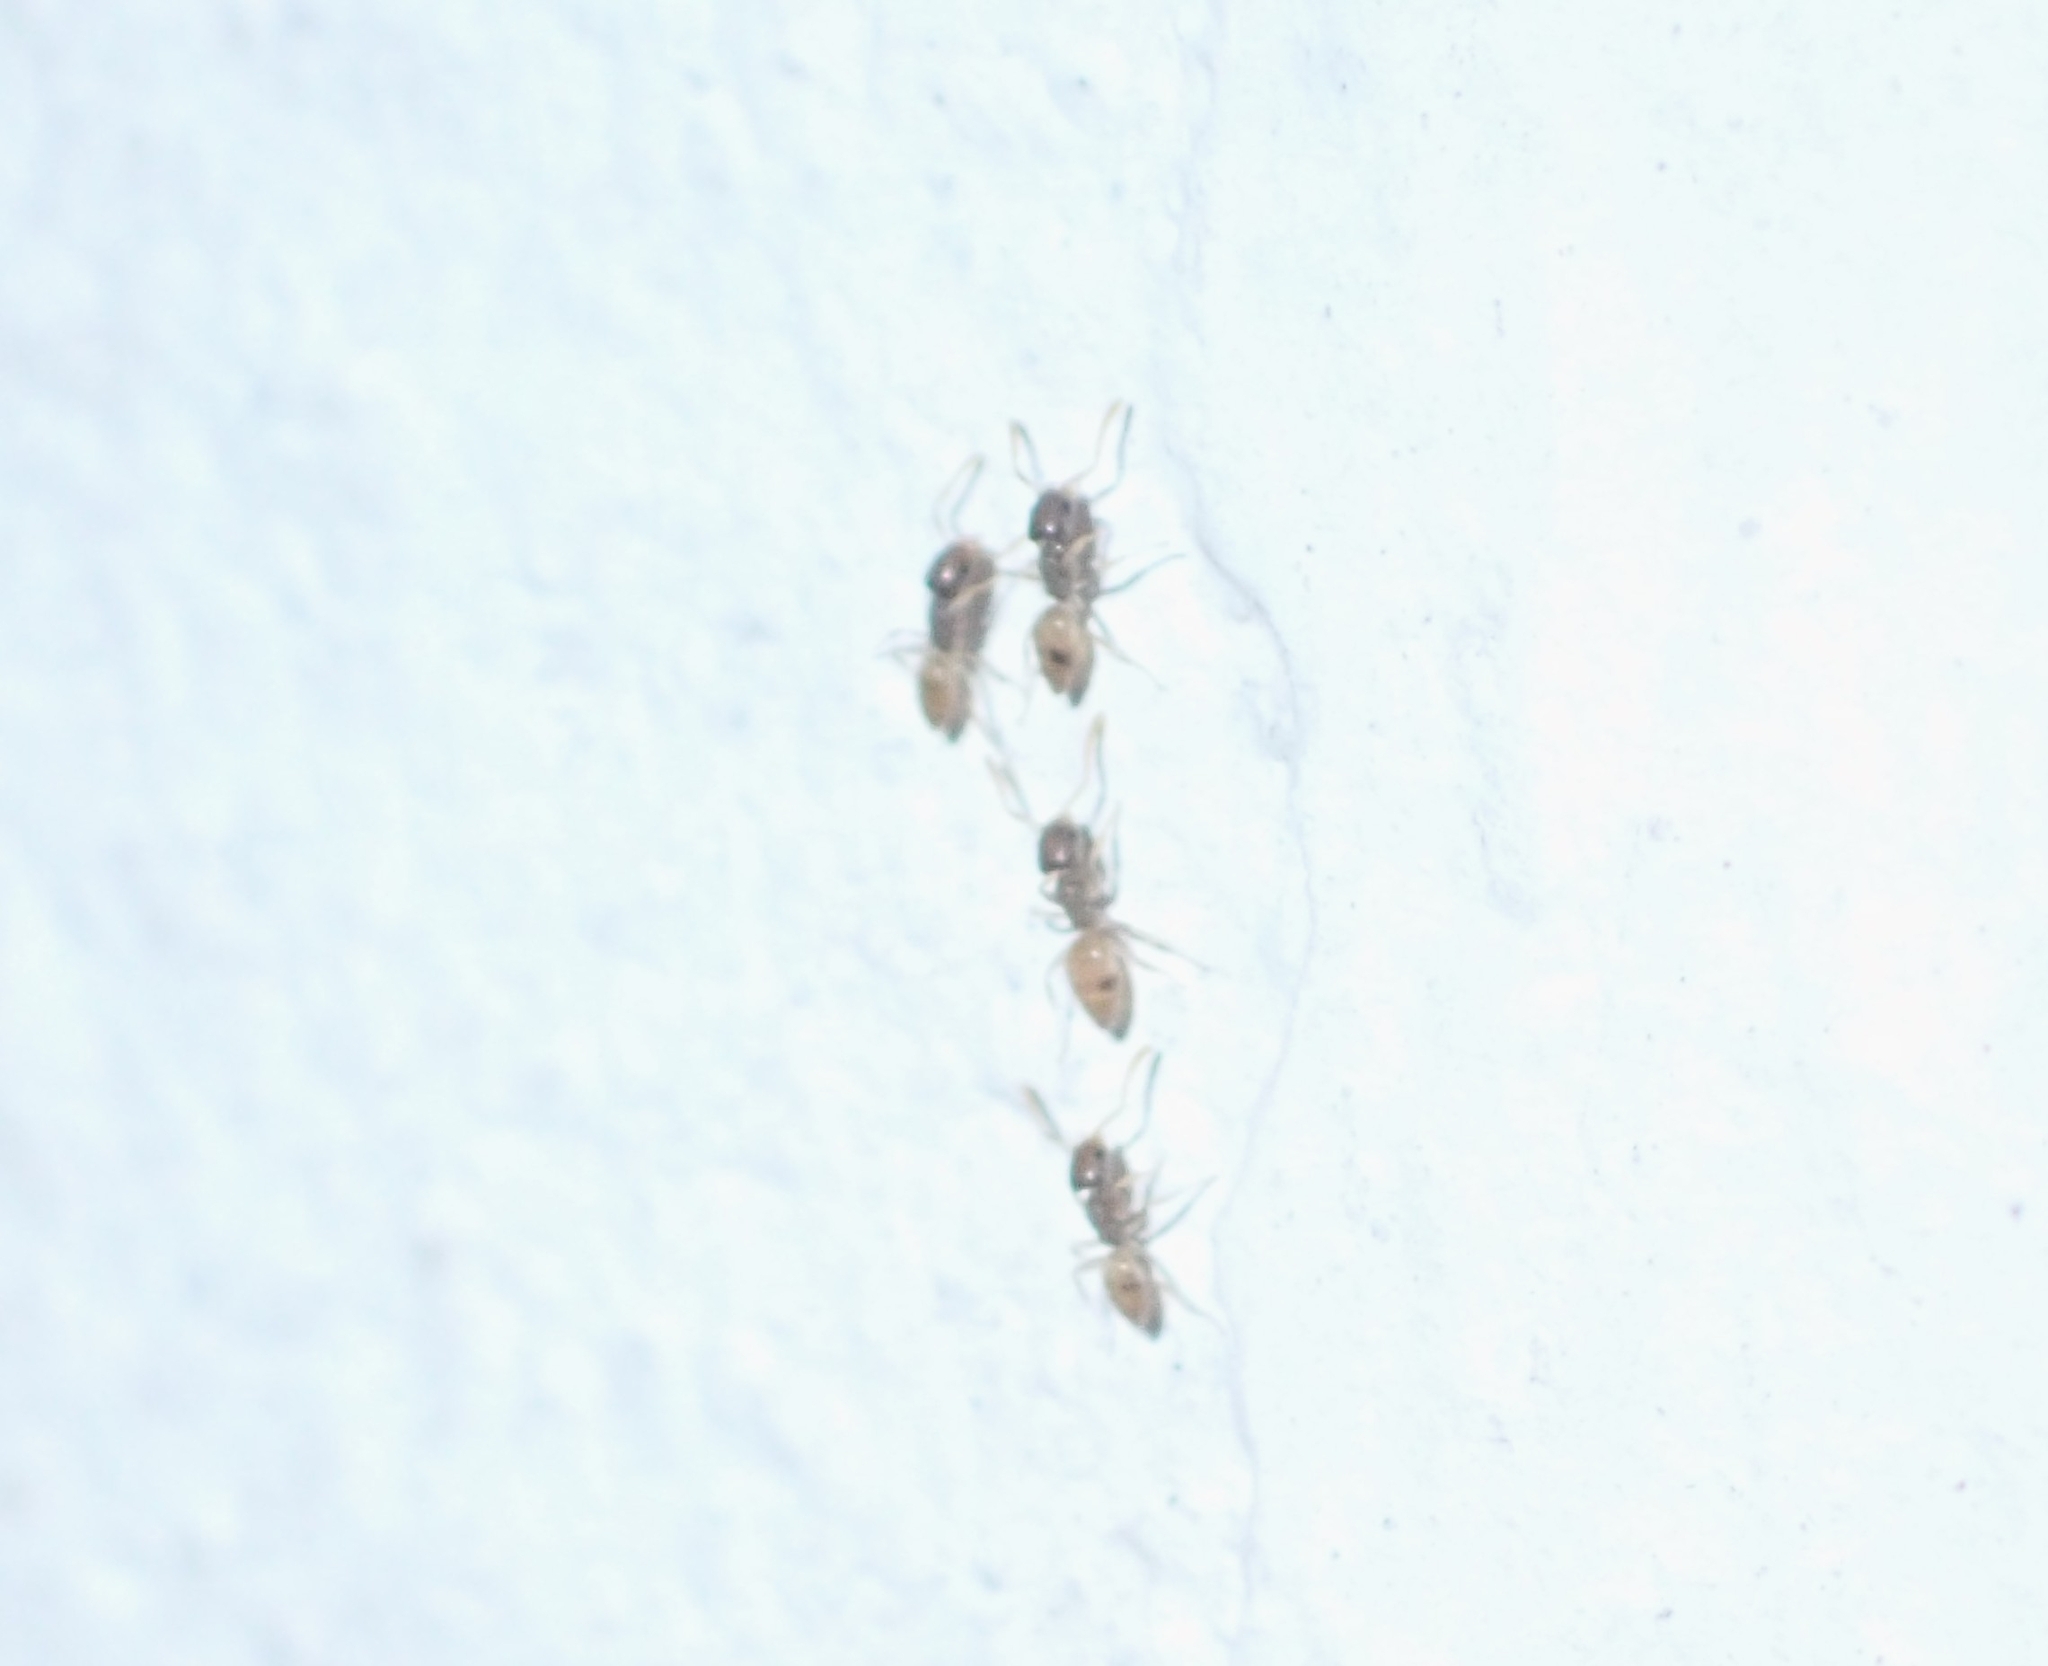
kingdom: Animalia
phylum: Arthropoda
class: Insecta
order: Hymenoptera
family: Formicidae
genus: Tapinoma
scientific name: Tapinoma melanocephalum
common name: Ghost ant
